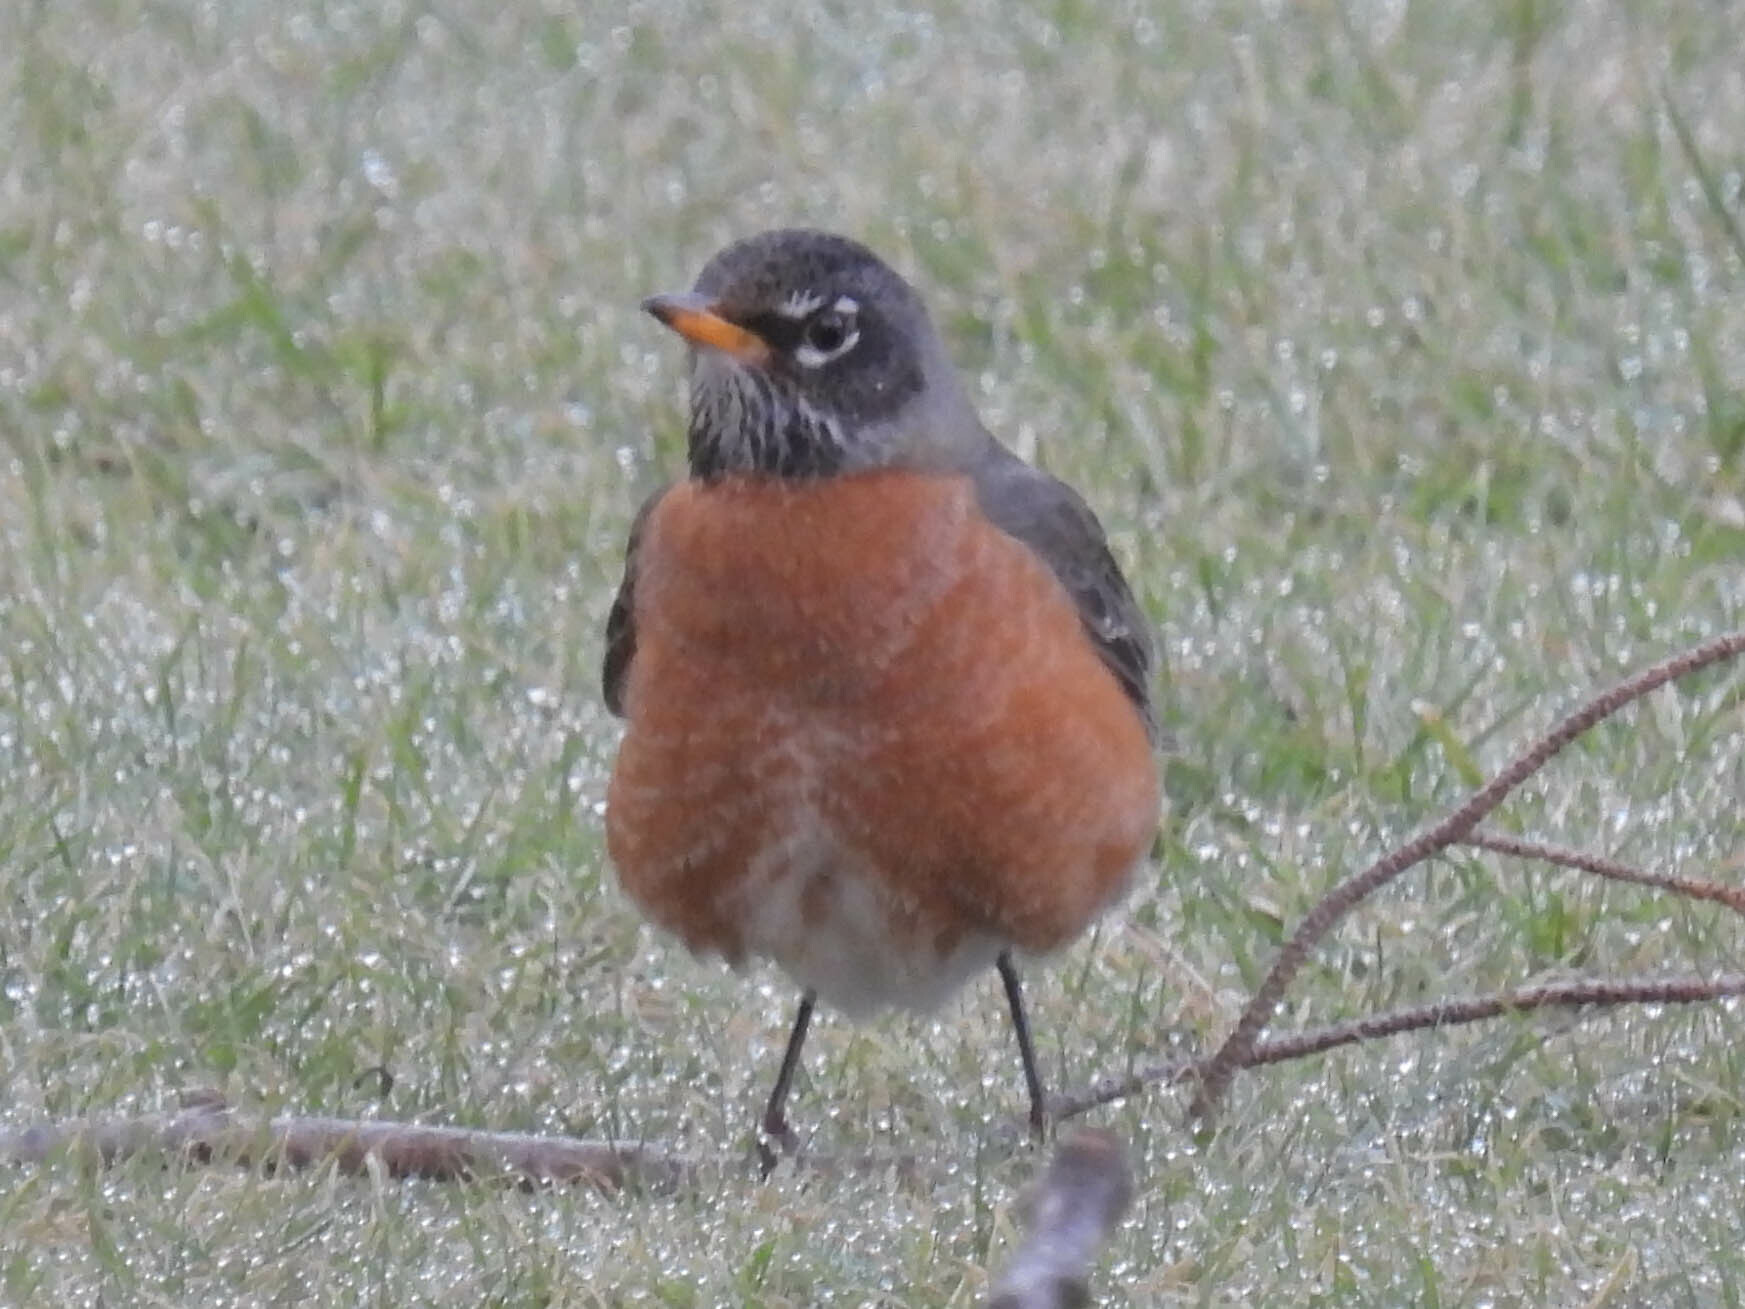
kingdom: Animalia
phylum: Chordata
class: Aves
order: Passeriformes
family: Turdidae
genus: Turdus
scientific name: Turdus migratorius
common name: American robin
